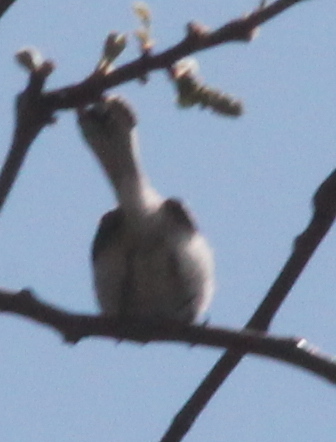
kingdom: Animalia
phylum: Chordata
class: Aves
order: Passeriformes
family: Polioptilidae
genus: Polioptila
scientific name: Polioptila caerulea
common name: Blue-gray gnatcatcher
